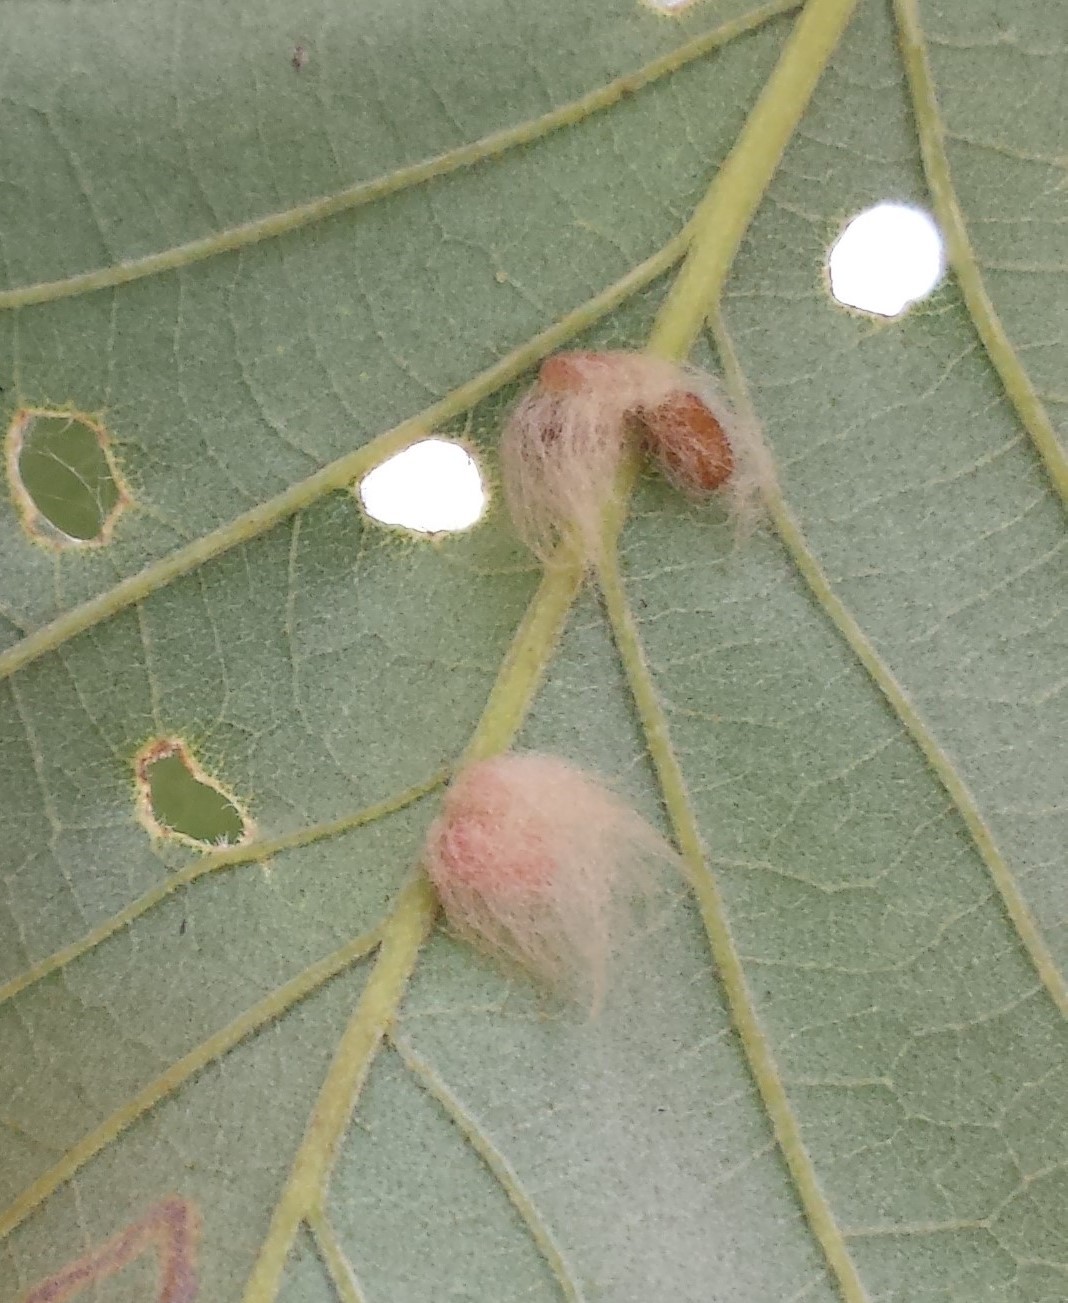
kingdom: Animalia
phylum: Arthropoda
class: Insecta
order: Hymenoptera
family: Cynipidae
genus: Andricus
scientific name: Andricus Druon ignotum
